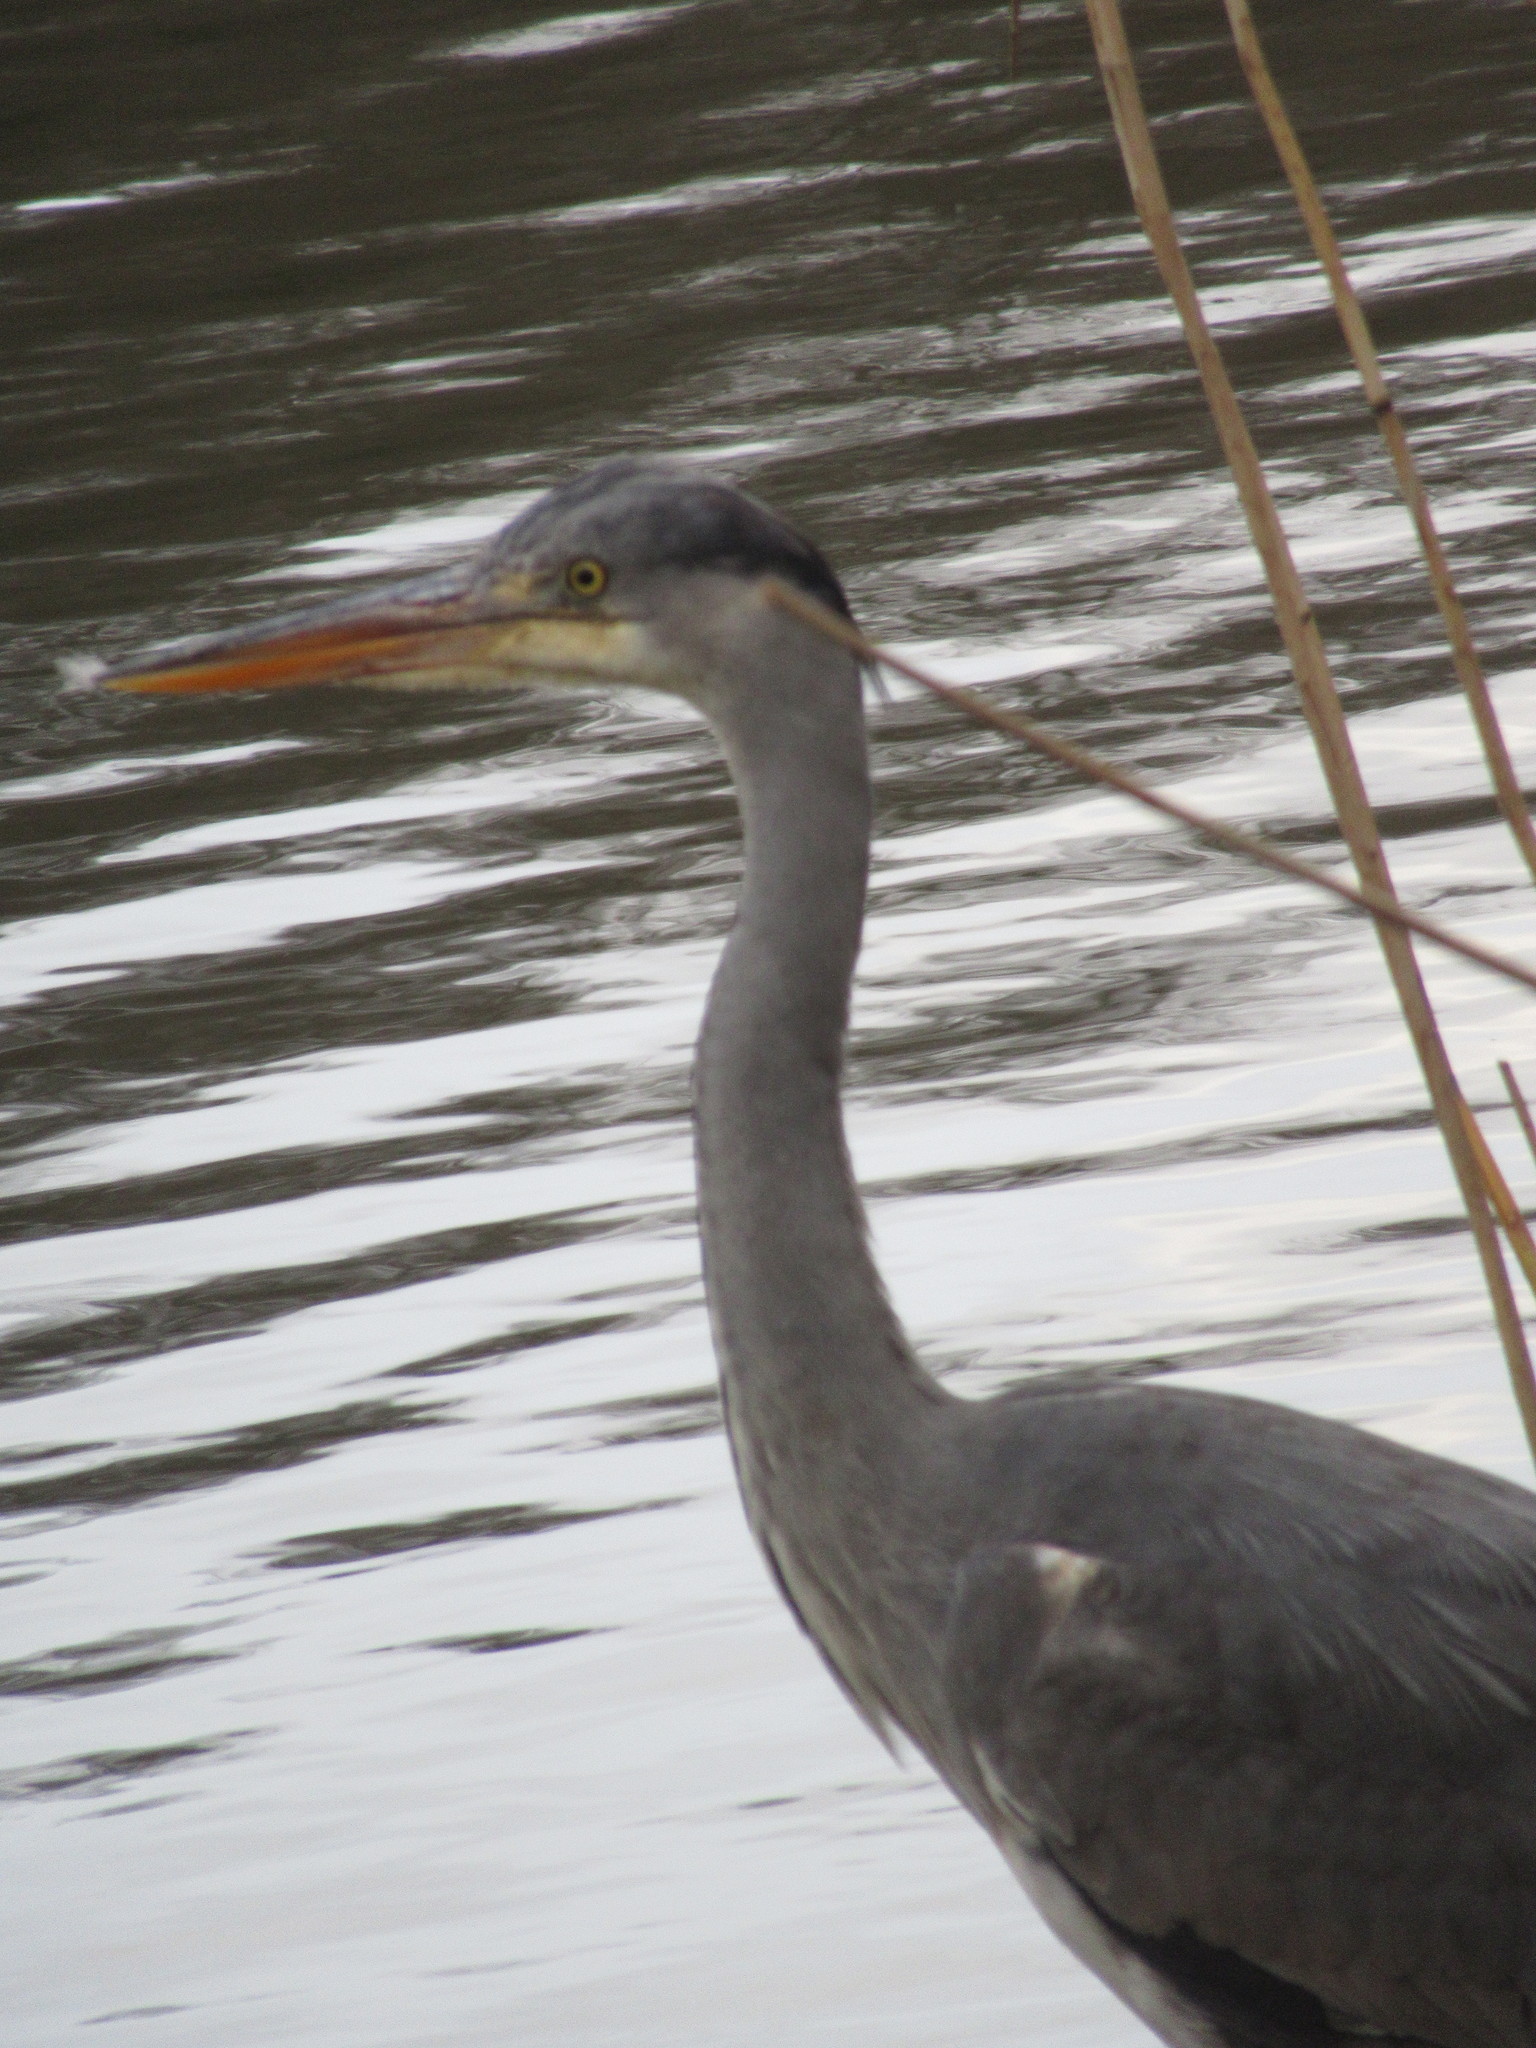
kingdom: Animalia
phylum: Chordata
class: Aves
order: Pelecaniformes
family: Ardeidae
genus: Ardea
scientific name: Ardea cinerea
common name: Grey heron
